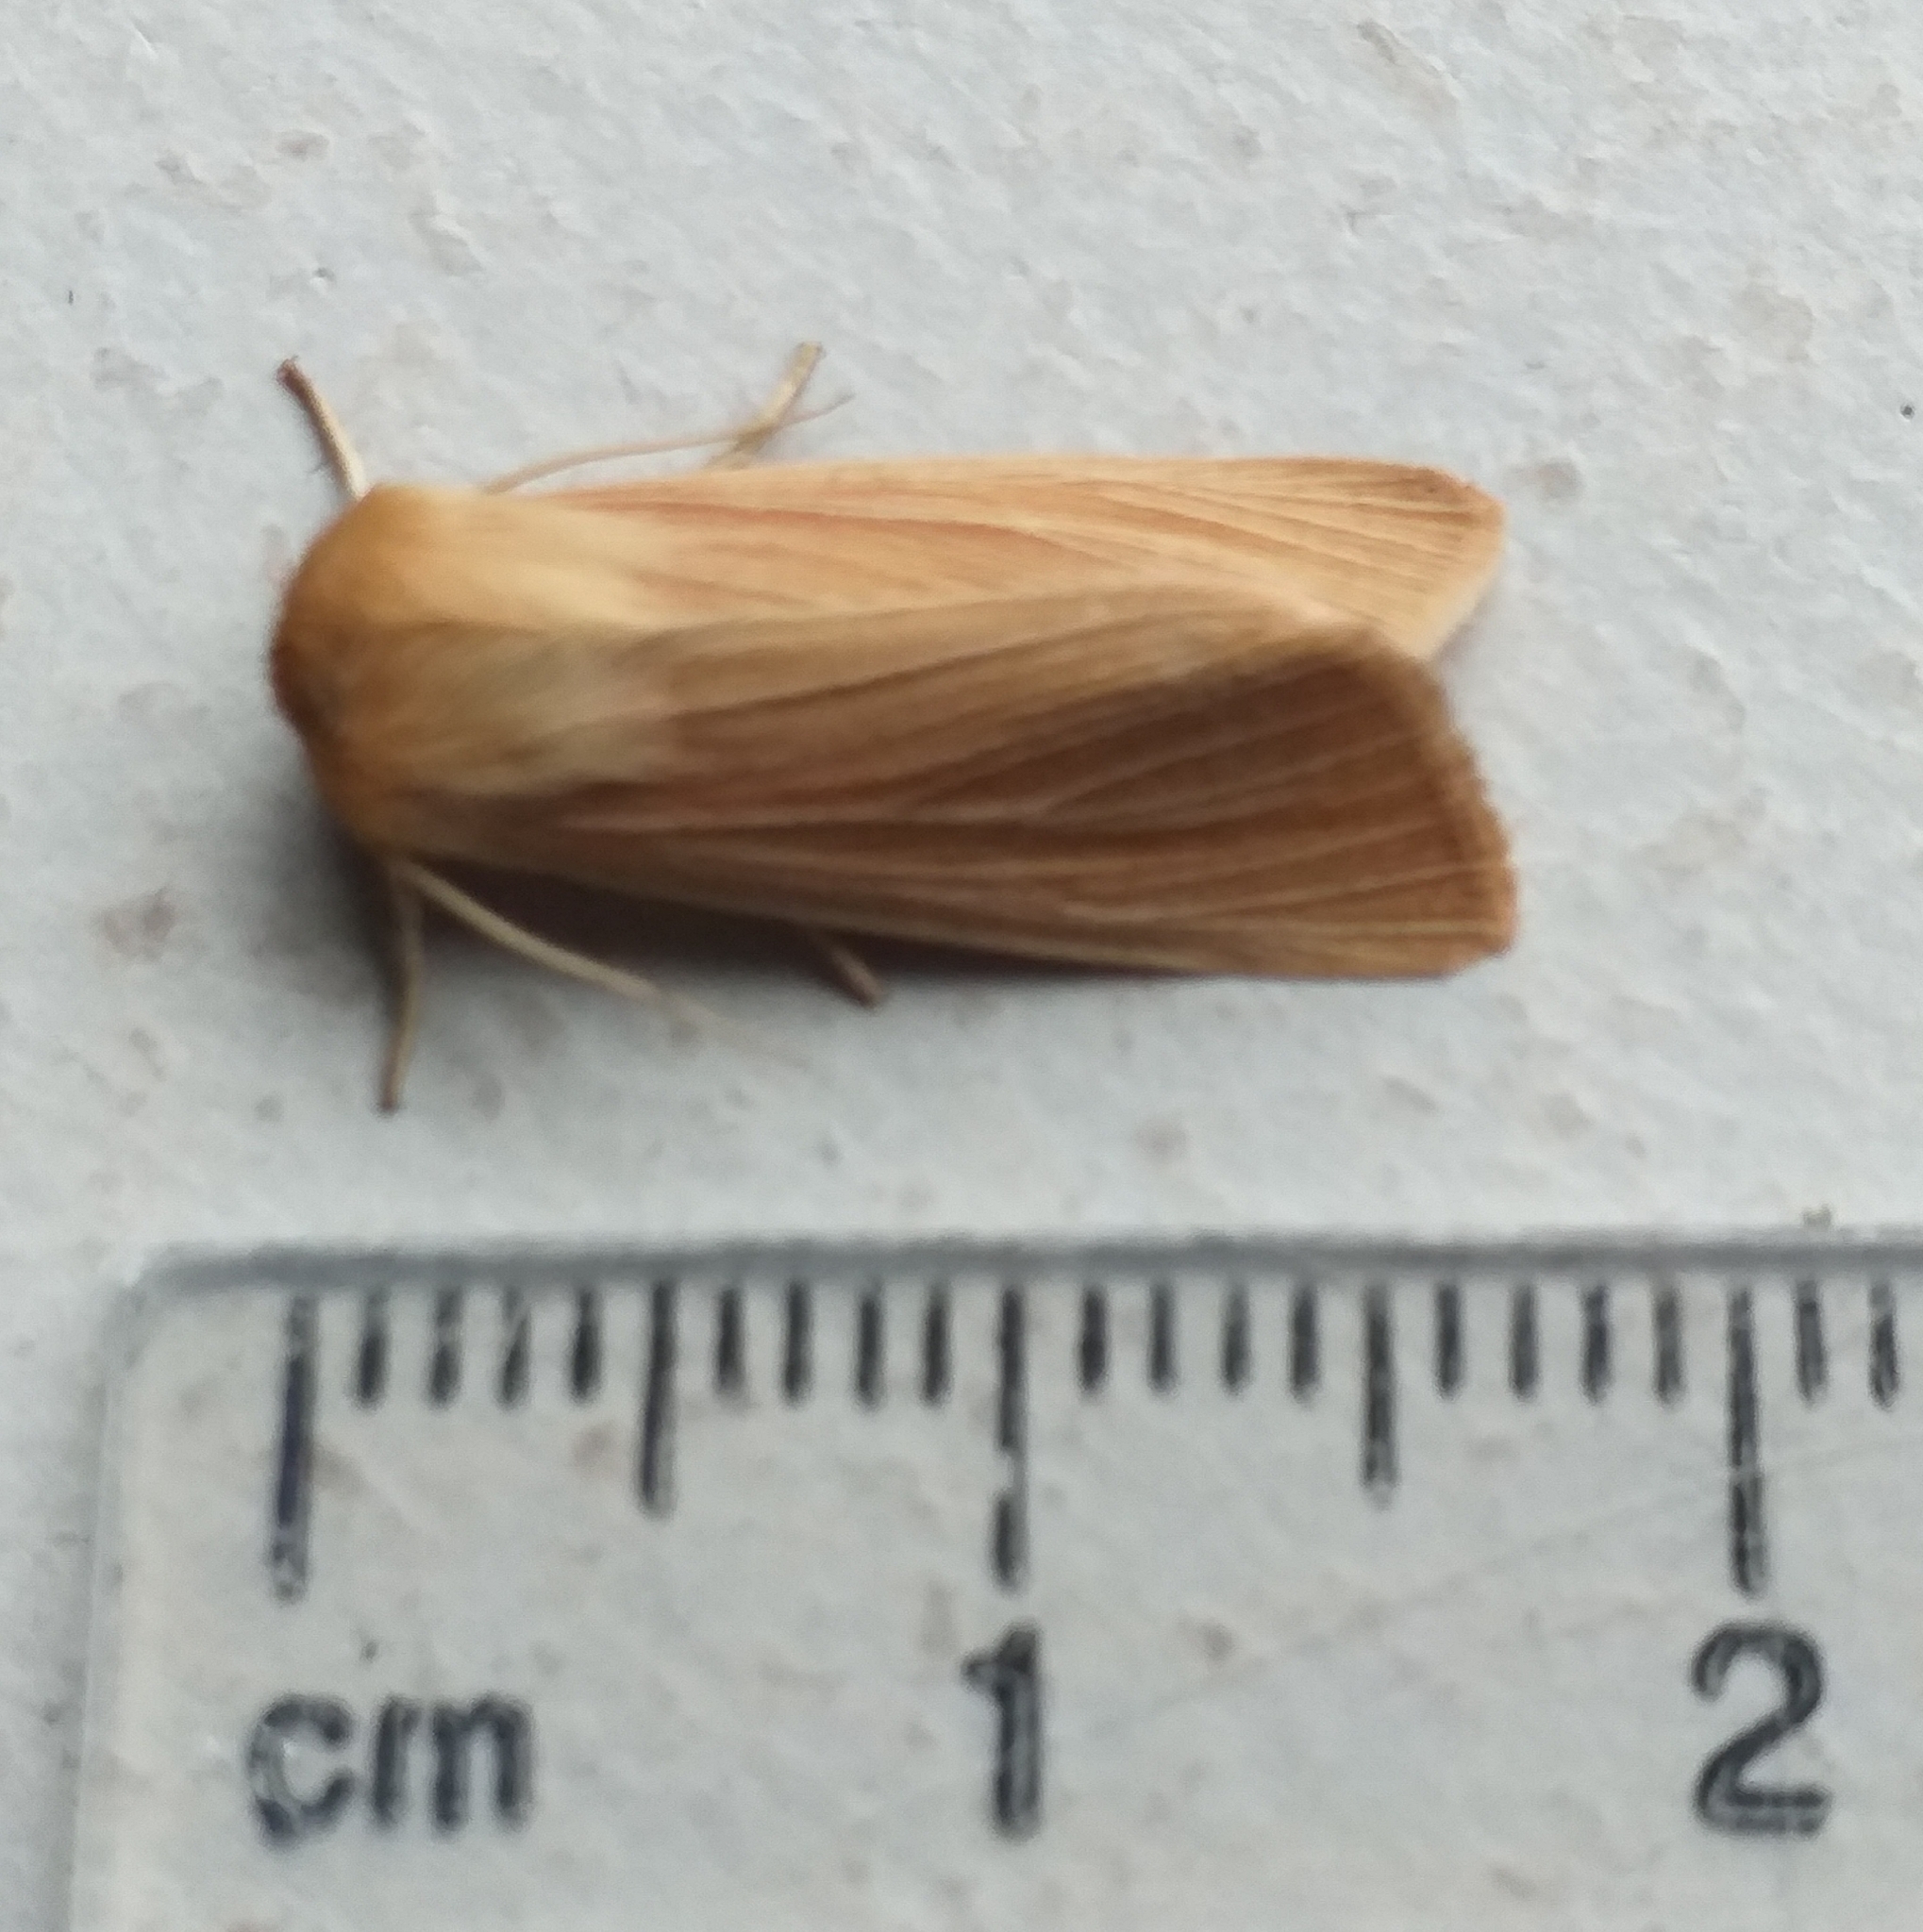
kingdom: Animalia
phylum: Arthropoda
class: Insecta
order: Lepidoptera
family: Noctuidae
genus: Mythimna
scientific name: Mythimna pallens
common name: Common wainscot
